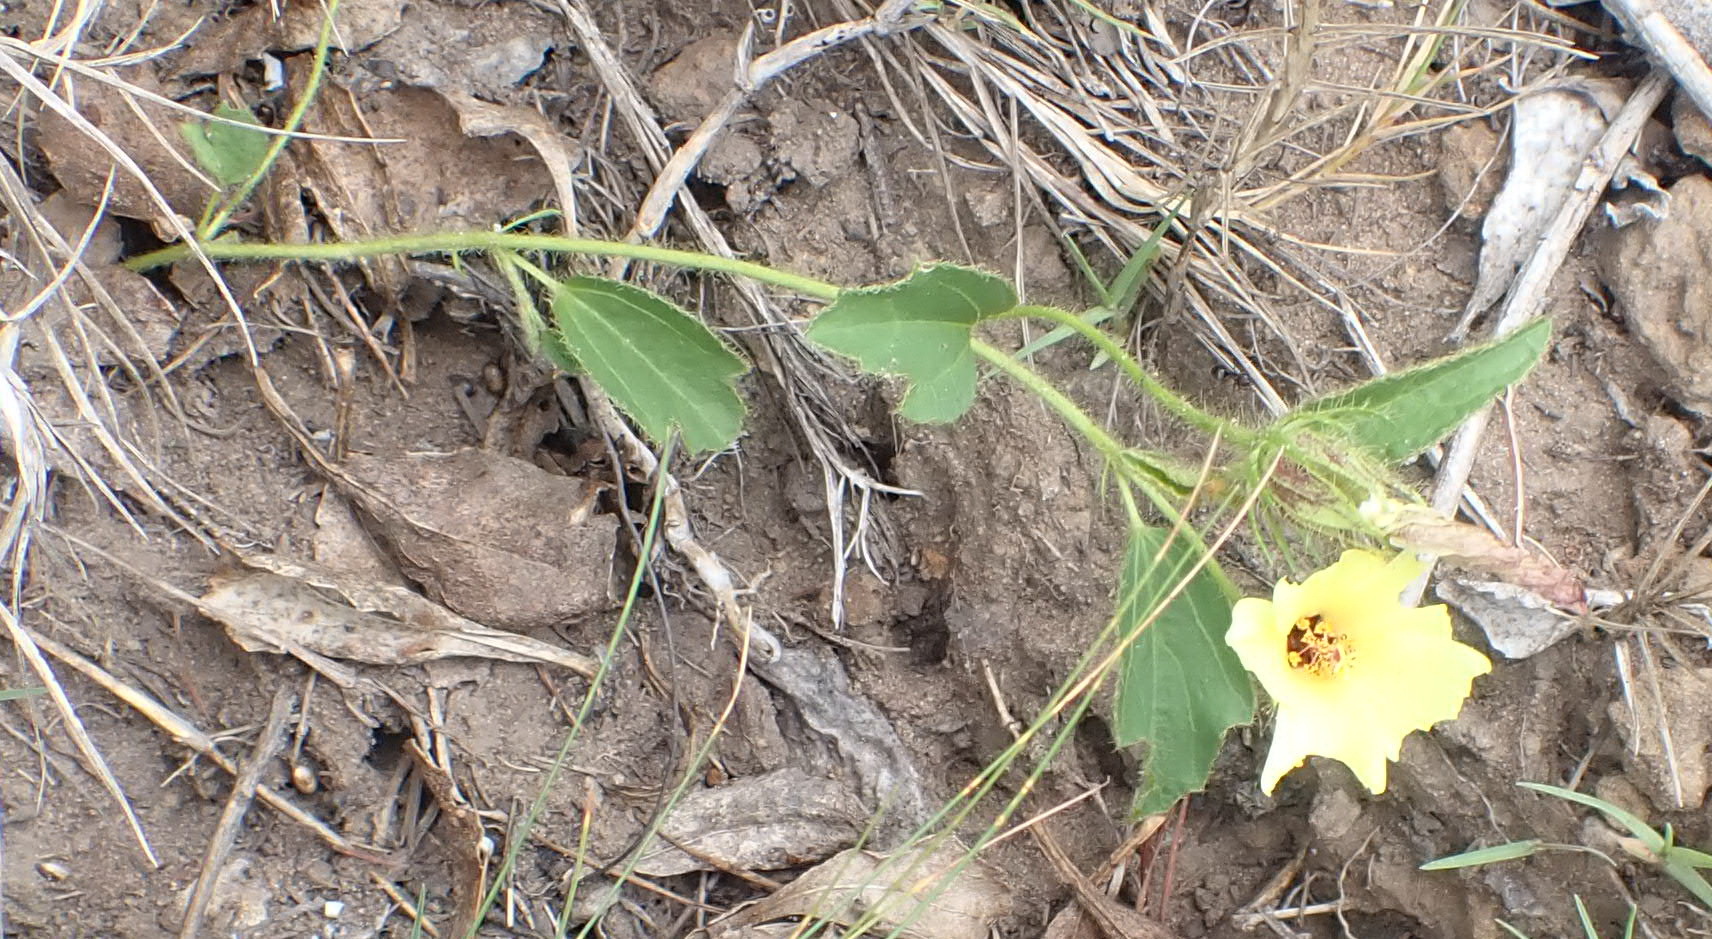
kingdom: Plantae
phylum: Tracheophyta
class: Magnoliopsida
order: Malvales
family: Malvaceae
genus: Hibiscus
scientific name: Hibiscus aethiopicus
